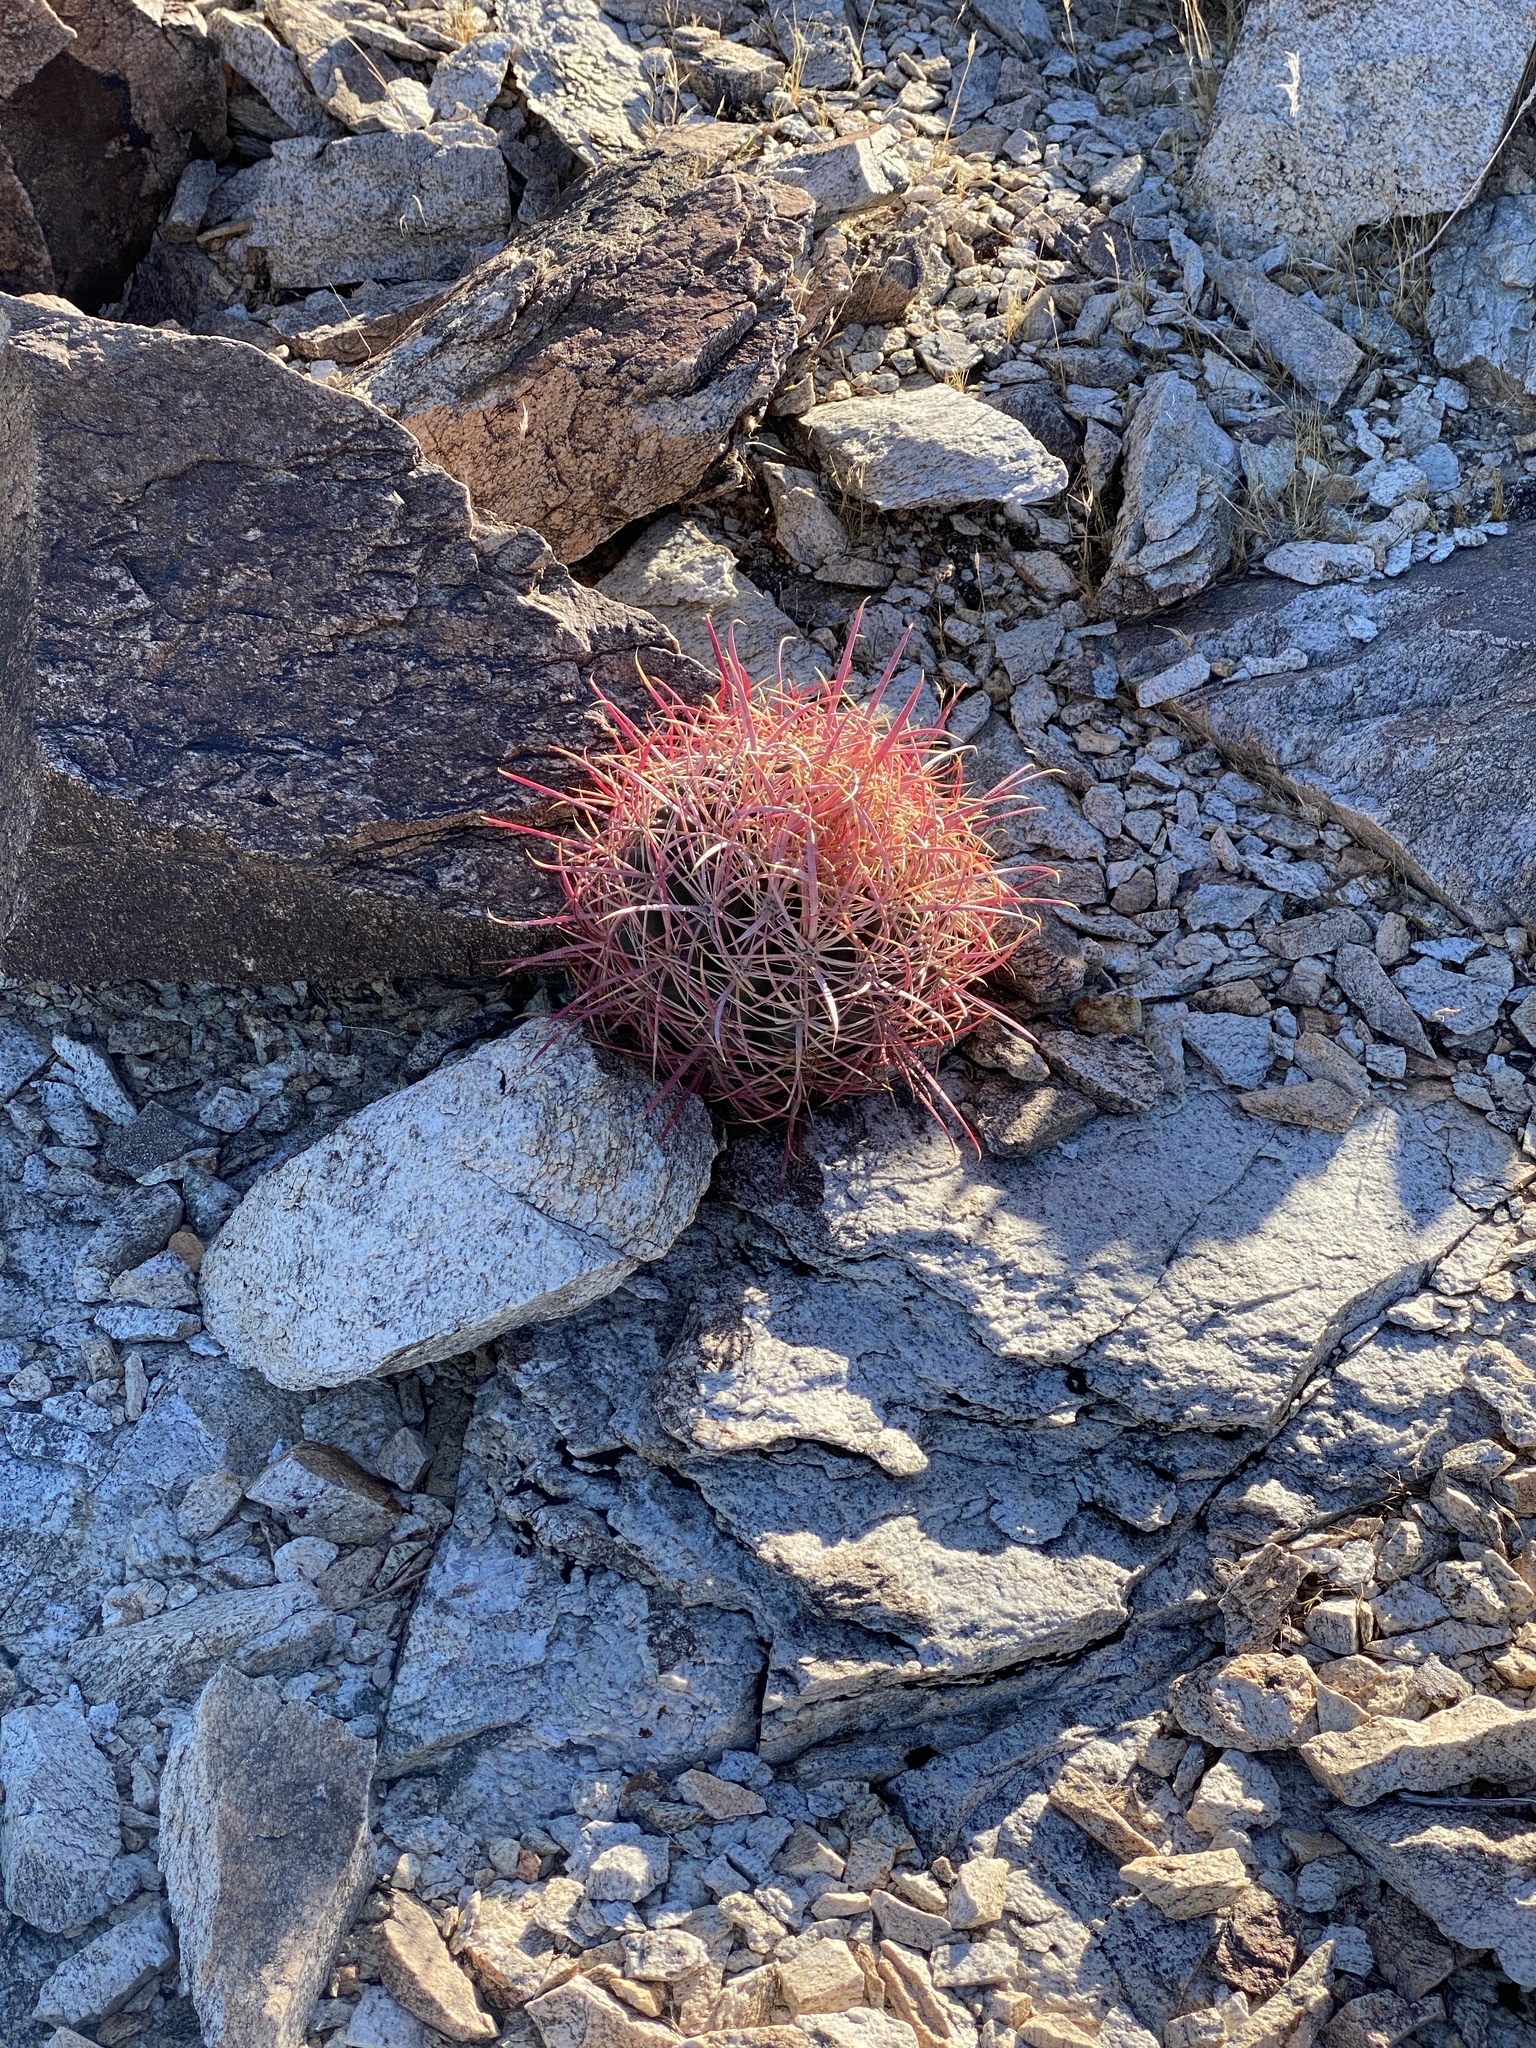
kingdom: Plantae
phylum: Tracheophyta
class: Magnoliopsida
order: Caryophyllales
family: Cactaceae
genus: Ferocactus
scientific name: Ferocactus cylindraceus
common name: California barrel cactus
